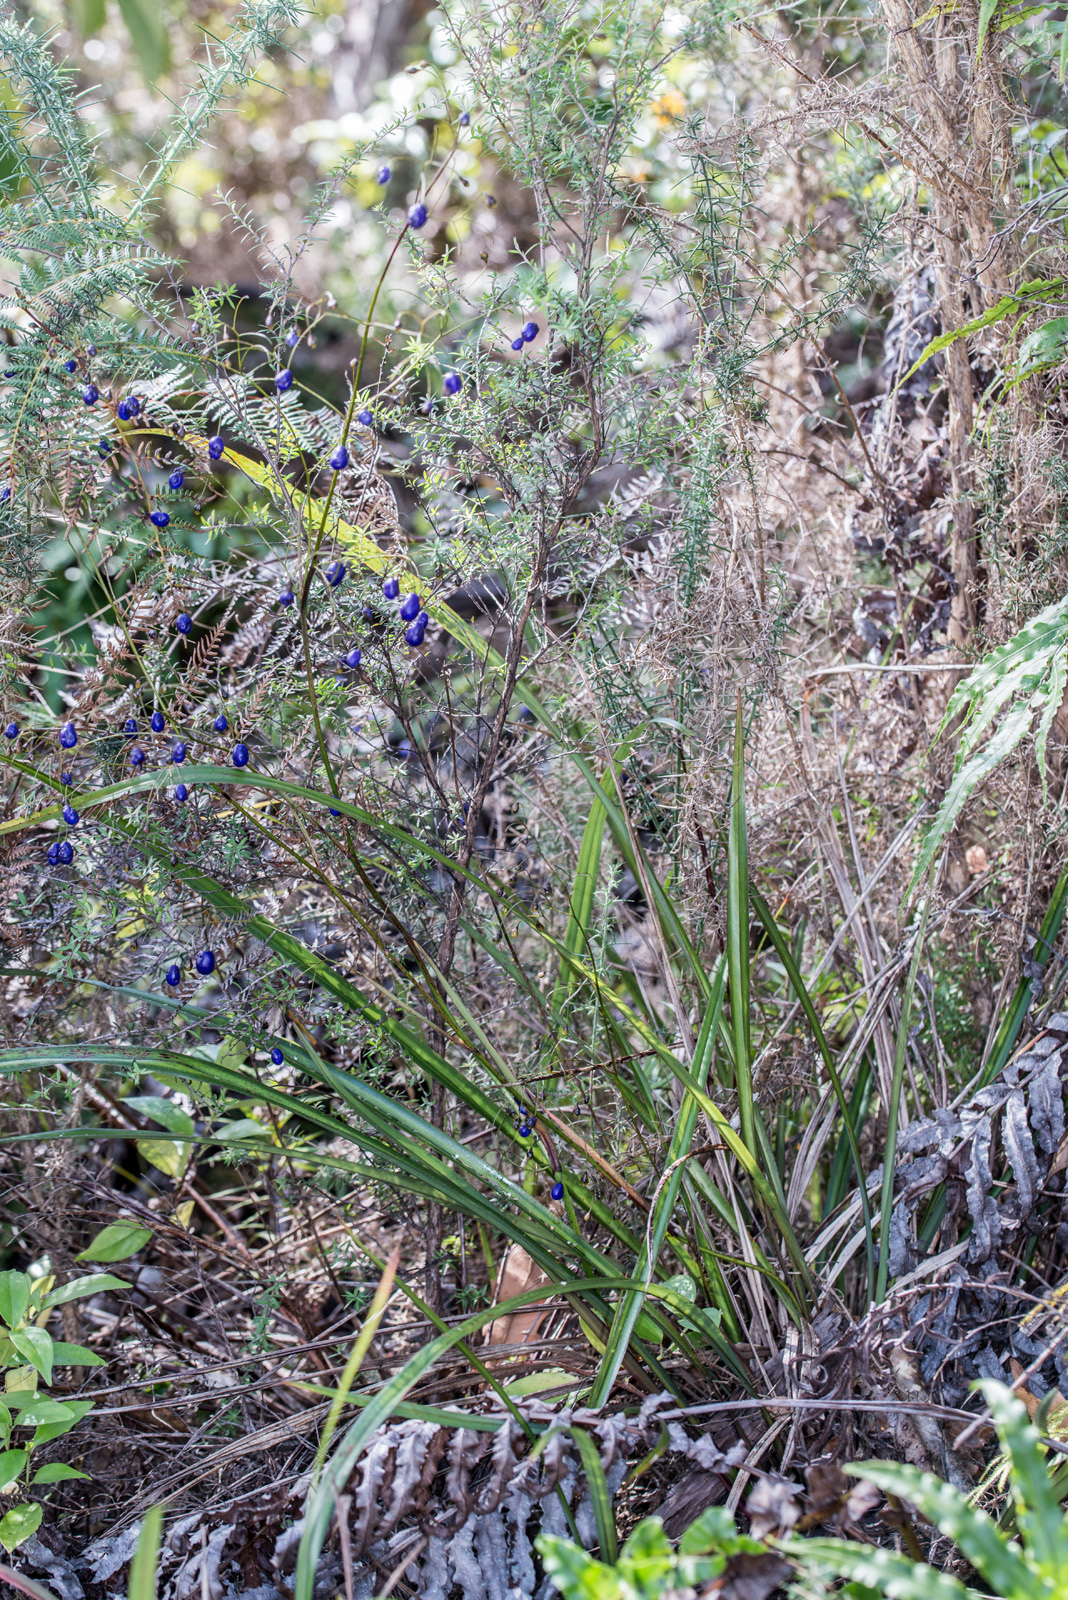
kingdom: Plantae
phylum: Tracheophyta
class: Liliopsida
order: Asparagales
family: Asphodelaceae
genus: Dianella
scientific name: Dianella nigra
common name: New zealand-blueberry
